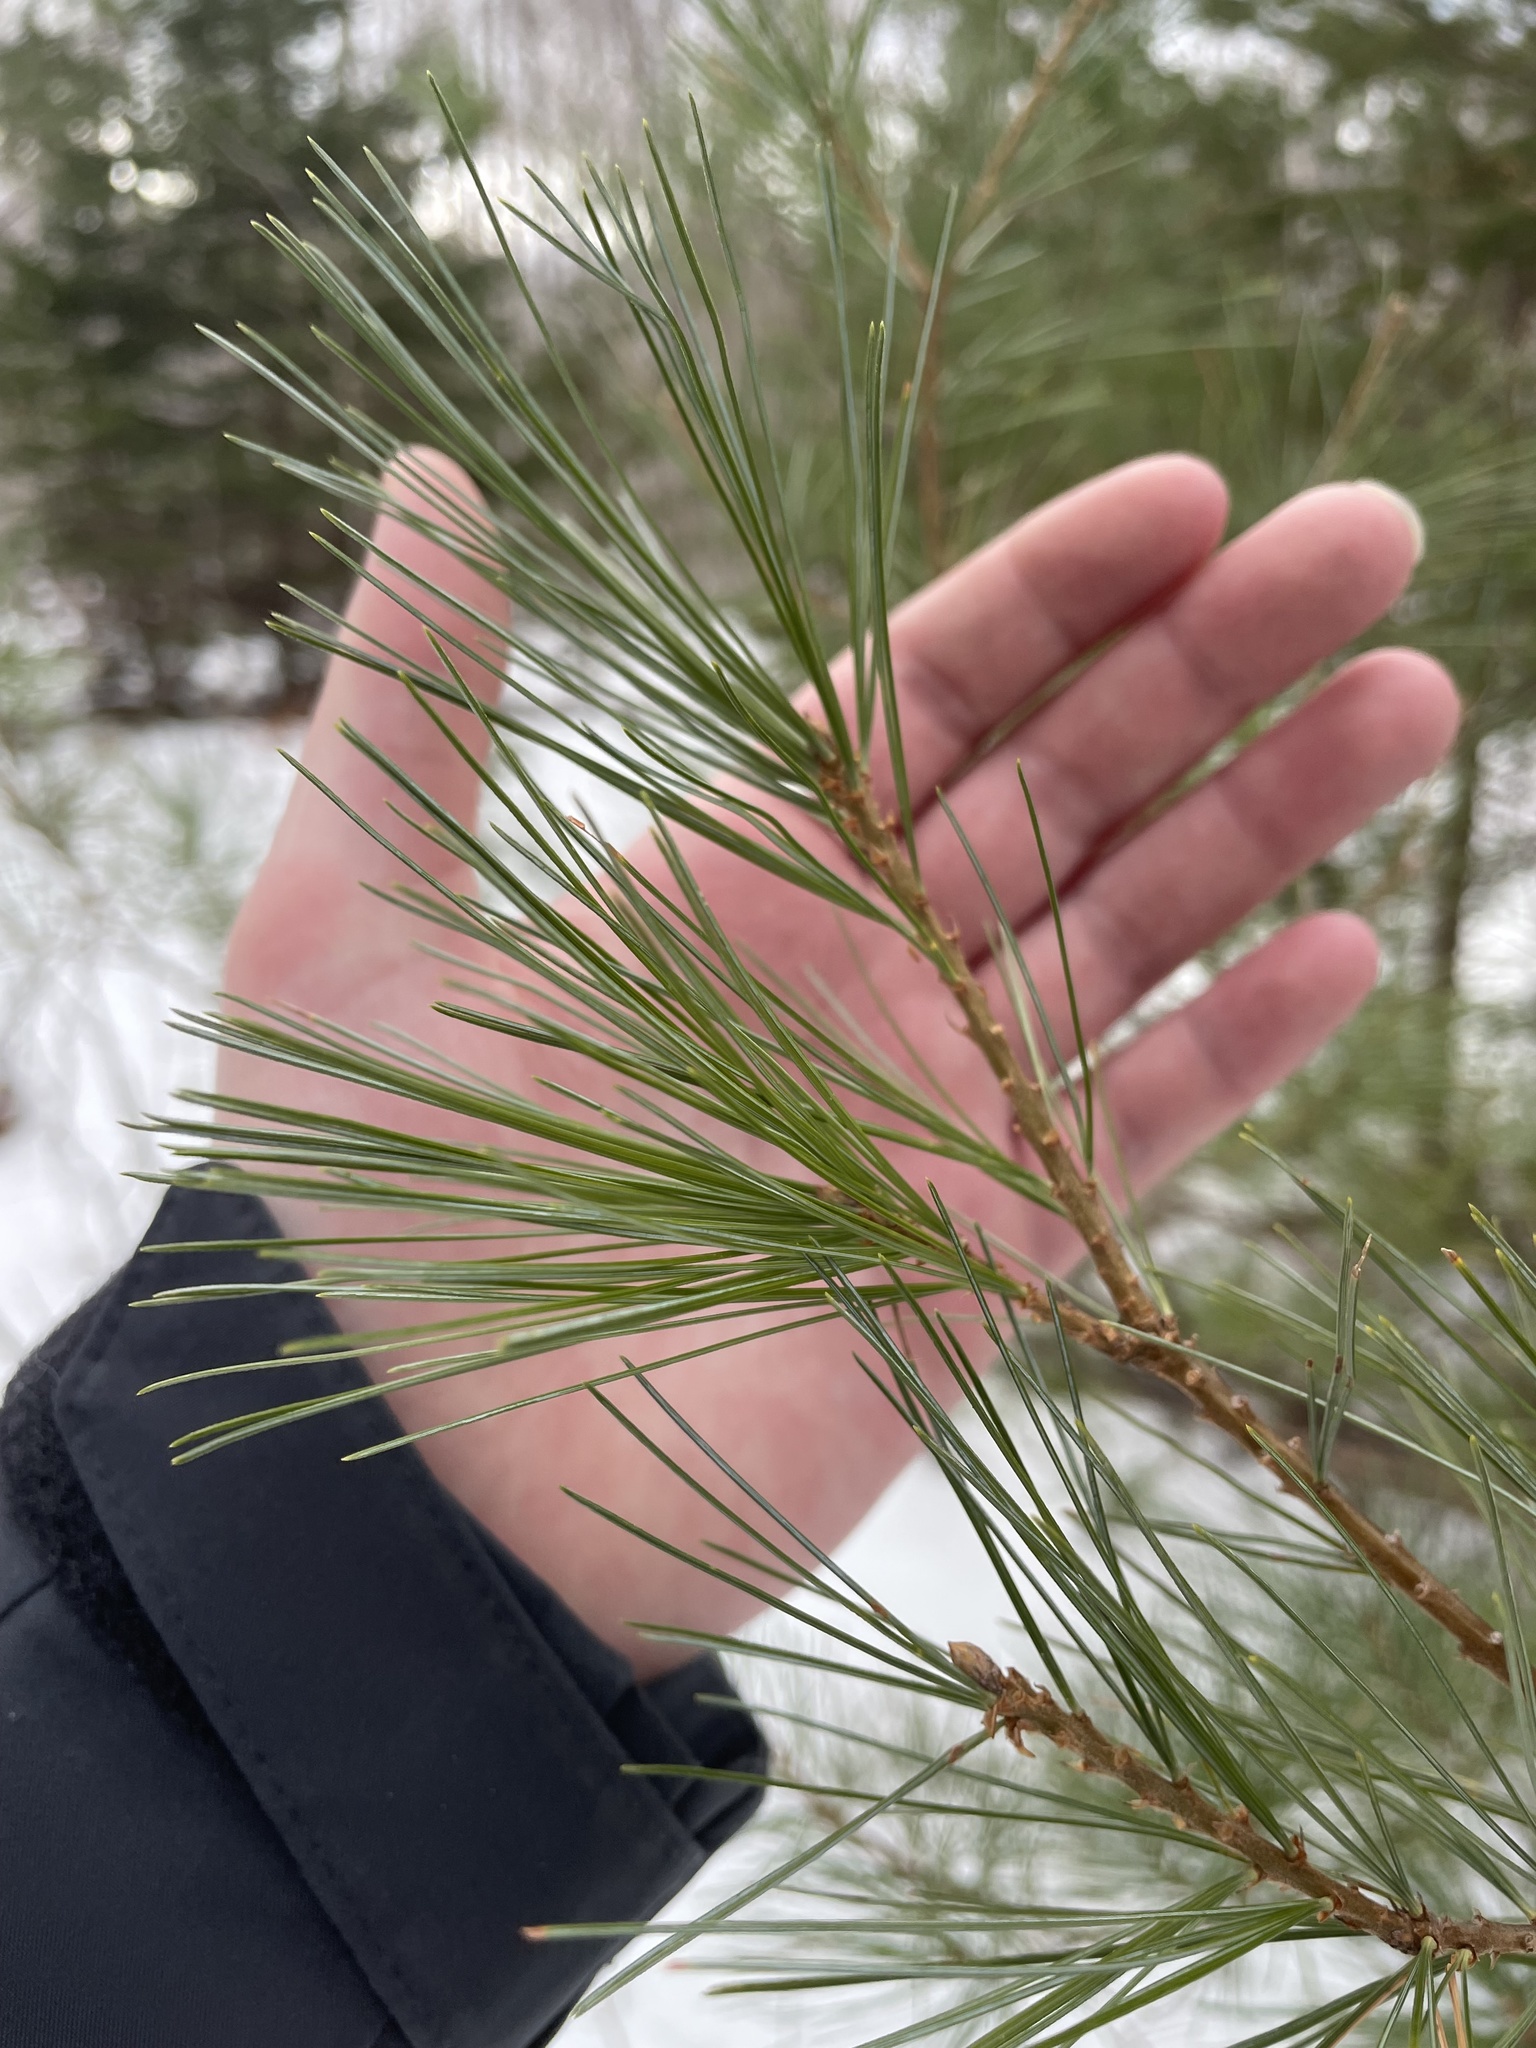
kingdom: Plantae
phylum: Tracheophyta
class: Pinopsida
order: Pinales
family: Pinaceae
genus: Pinus
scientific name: Pinus strobus
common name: Weymouth pine
